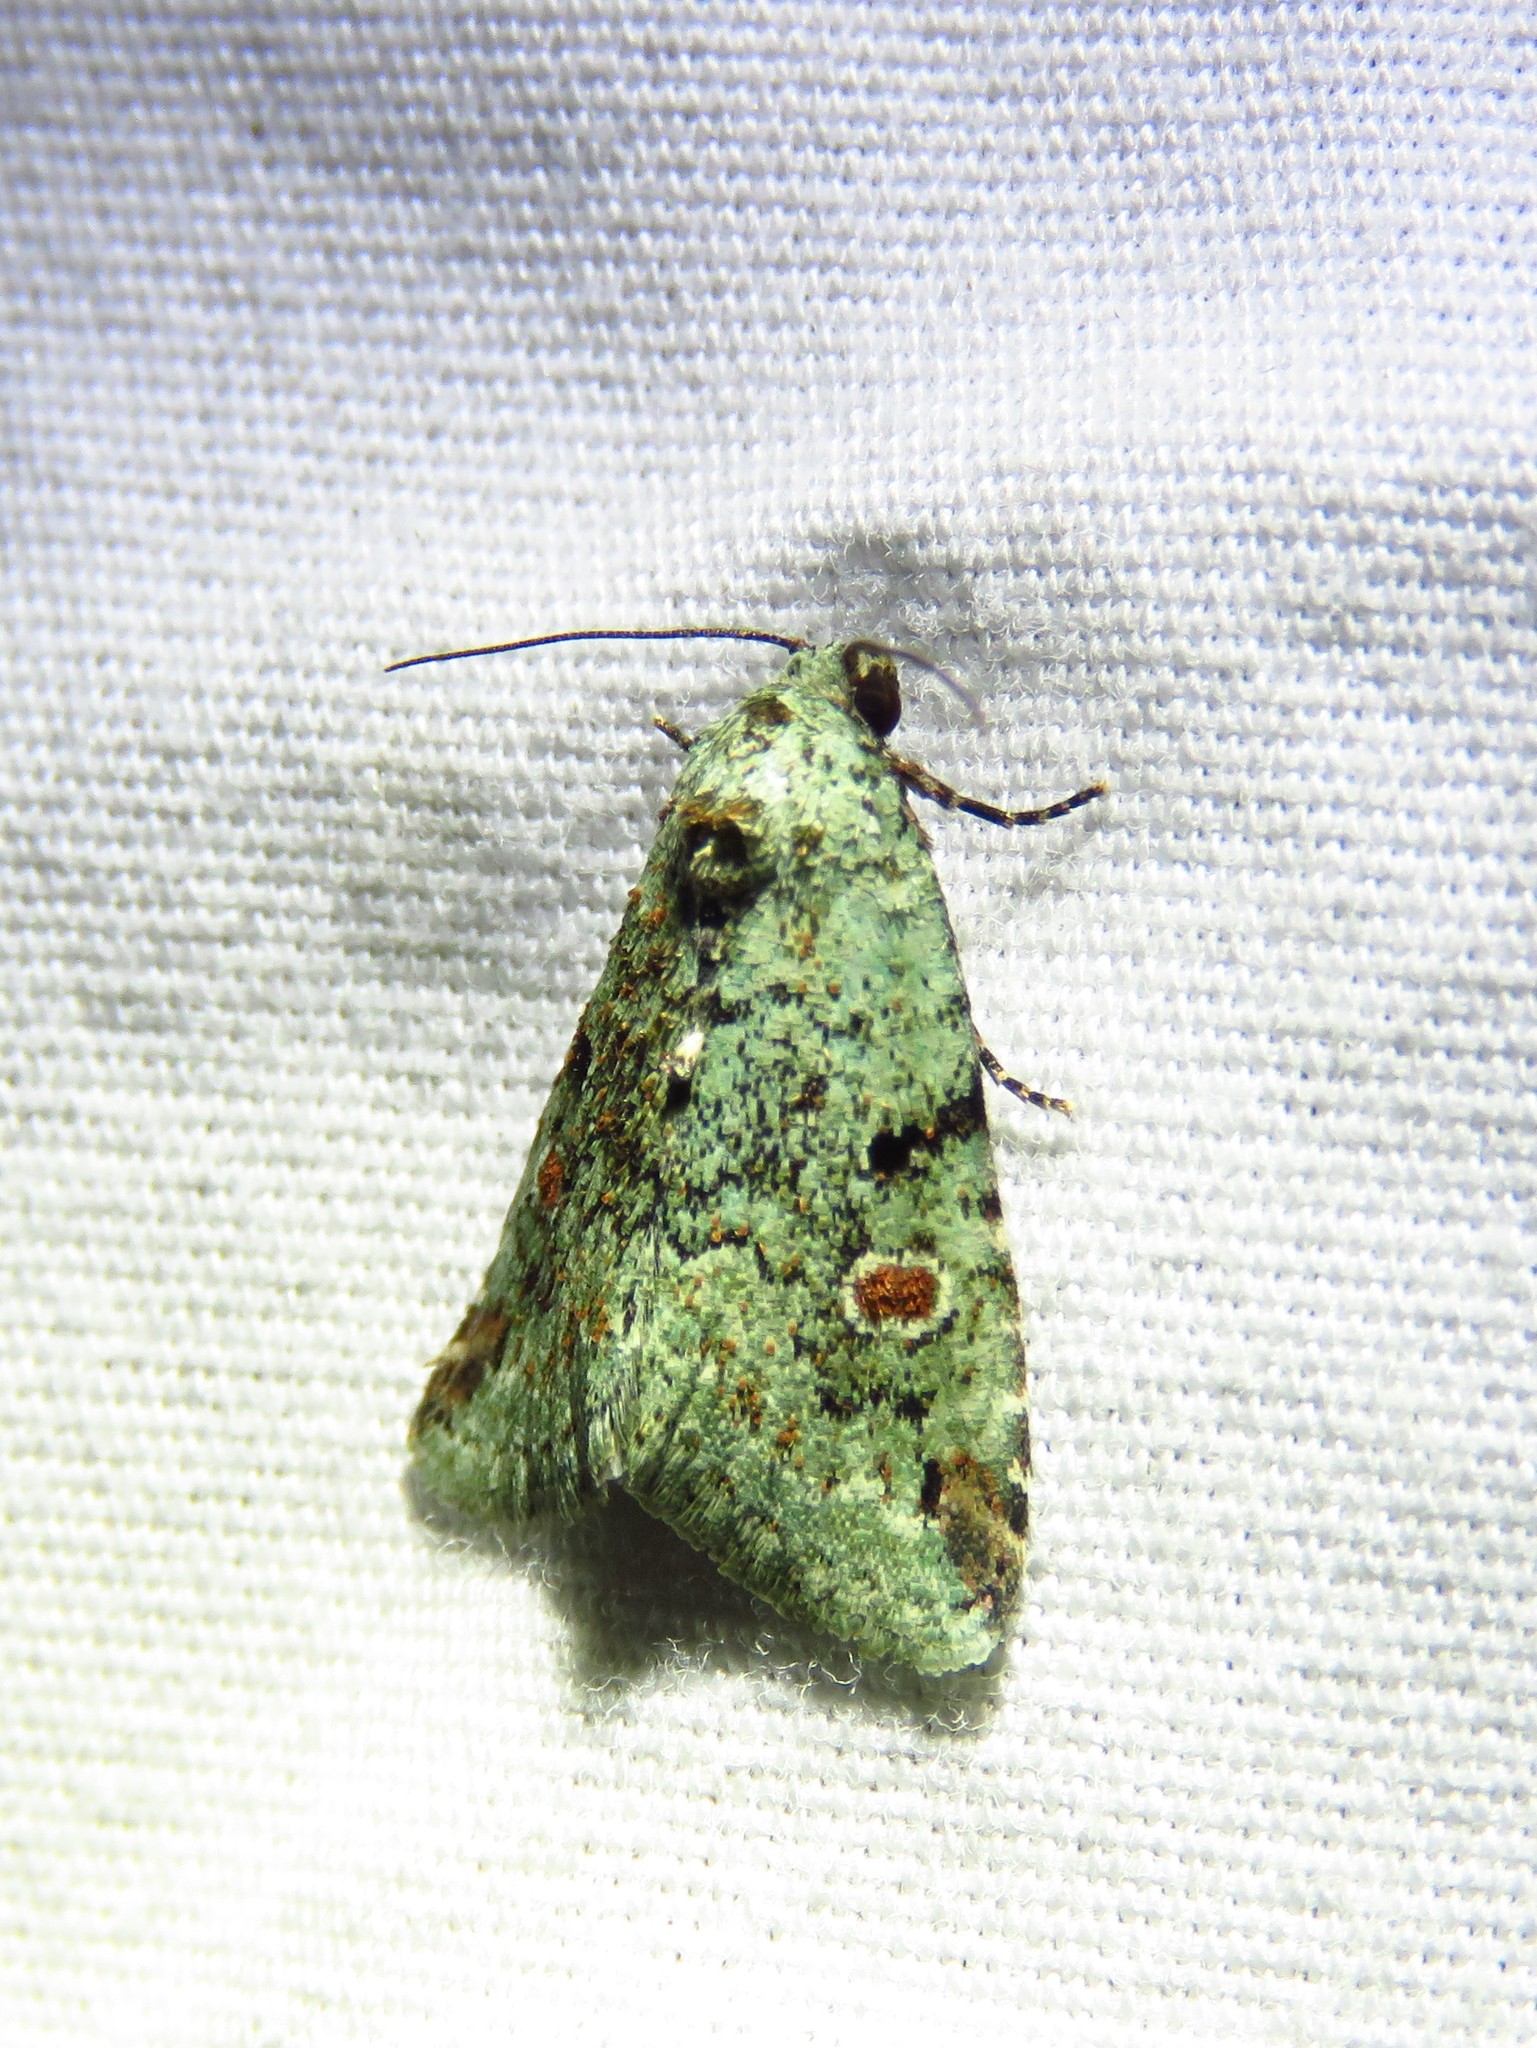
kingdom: Animalia
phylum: Arthropoda
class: Insecta
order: Lepidoptera
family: Noctuidae
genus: Maliattha
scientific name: Maliattha concinnimacula
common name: Red-spotted glyph
